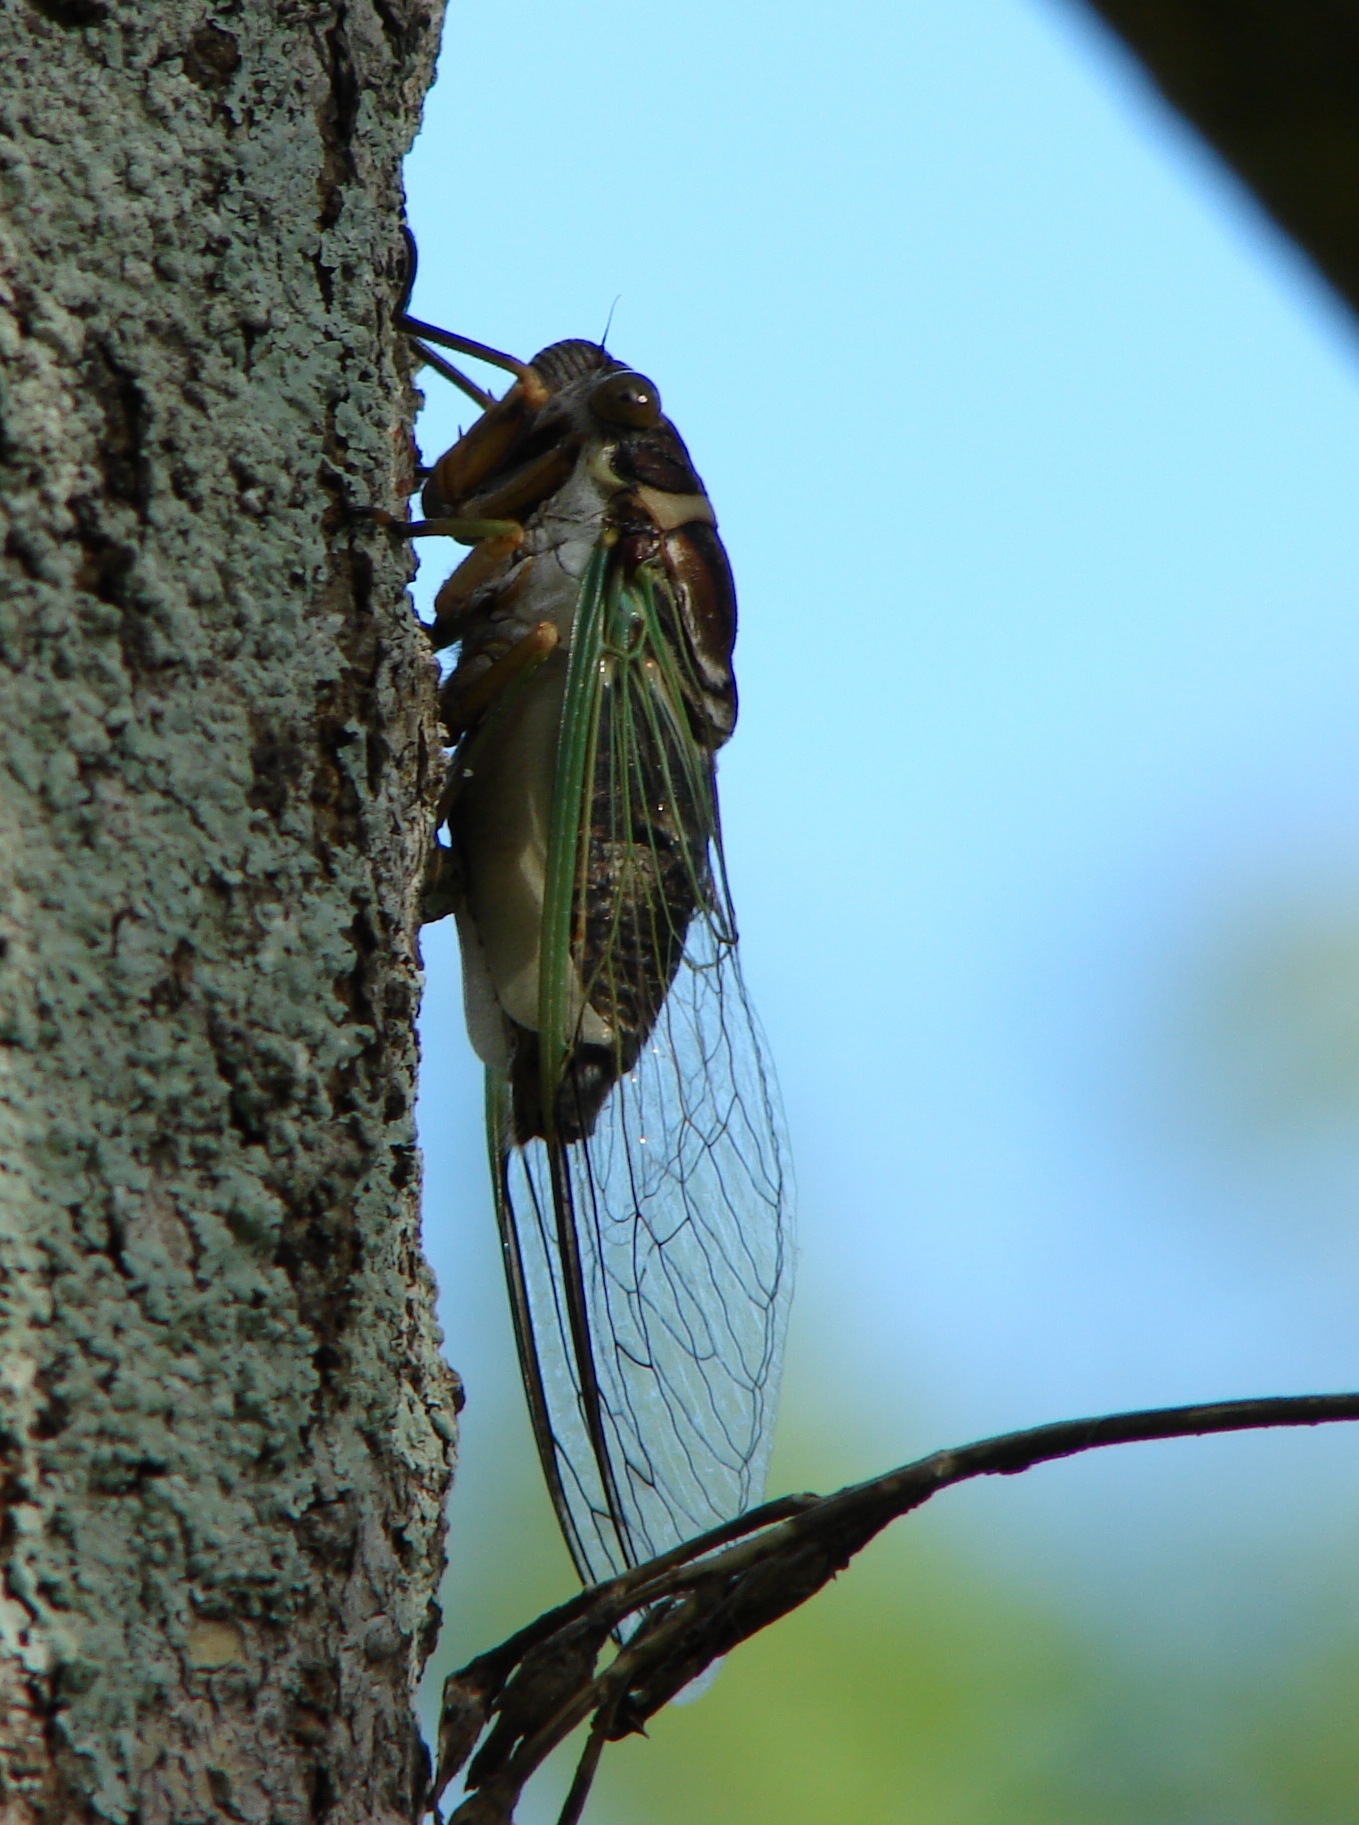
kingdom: Animalia
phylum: Arthropoda
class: Insecta
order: Hemiptera
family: Cicadidae
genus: Diceroprocta
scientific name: Diceroprocta bulgara
